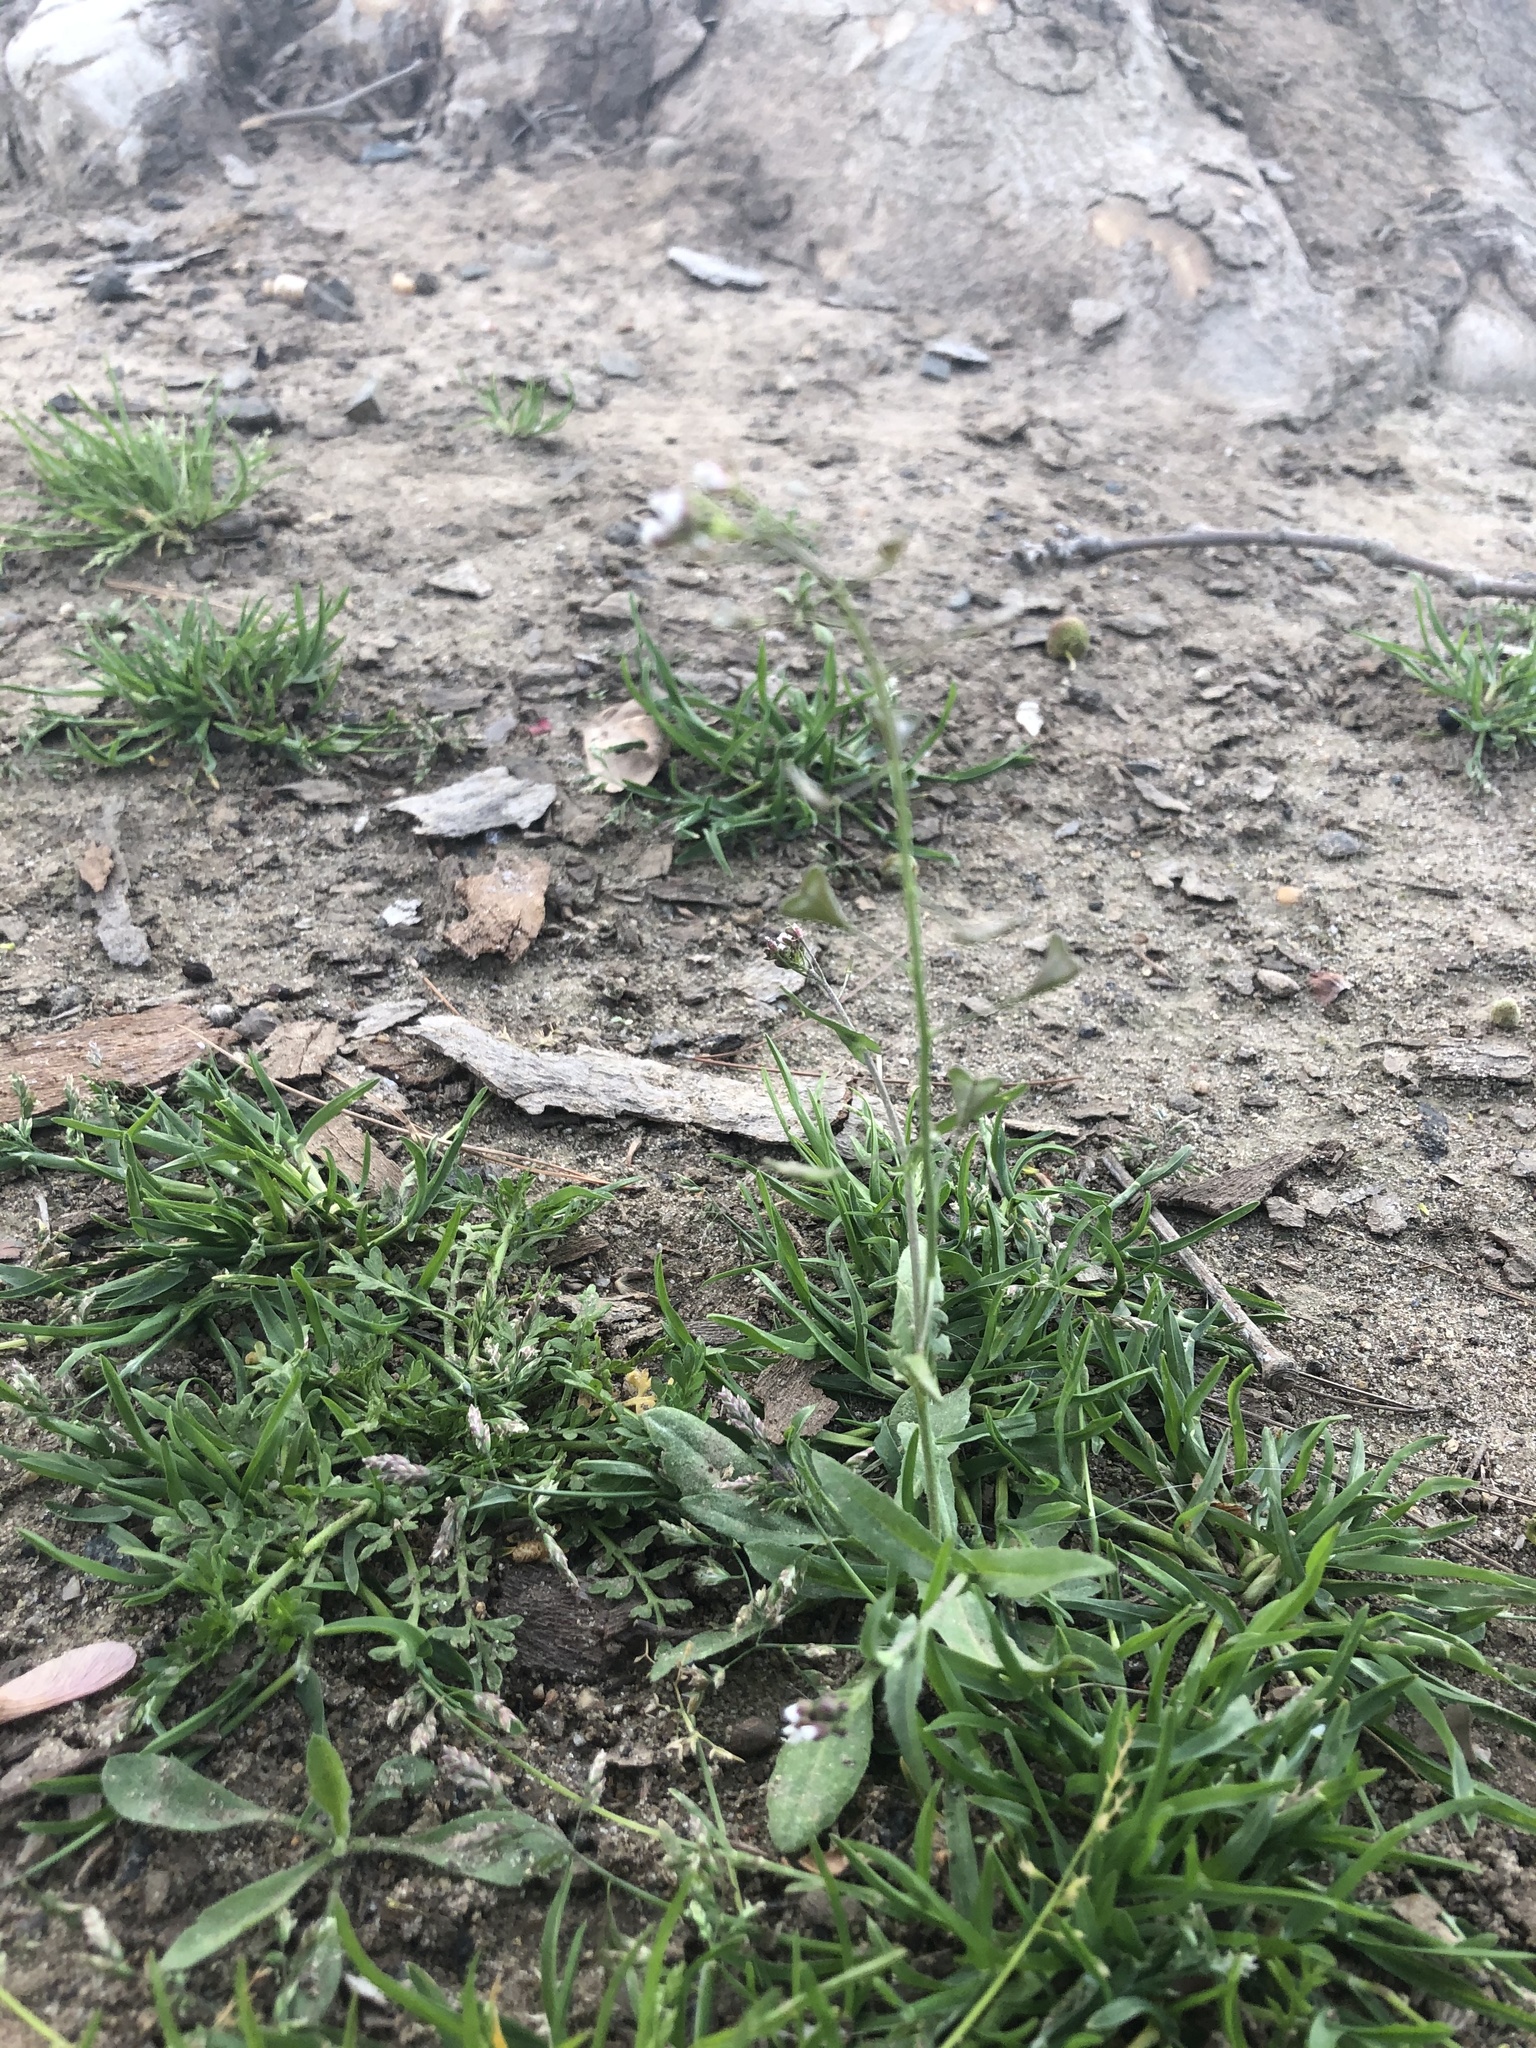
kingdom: Plantae
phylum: Tracheophyta
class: Magnoliopsida
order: Brassicales
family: Brassicaceae
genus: Capsella
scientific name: Capsella bursa-pastoris
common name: Shepherd's purse
